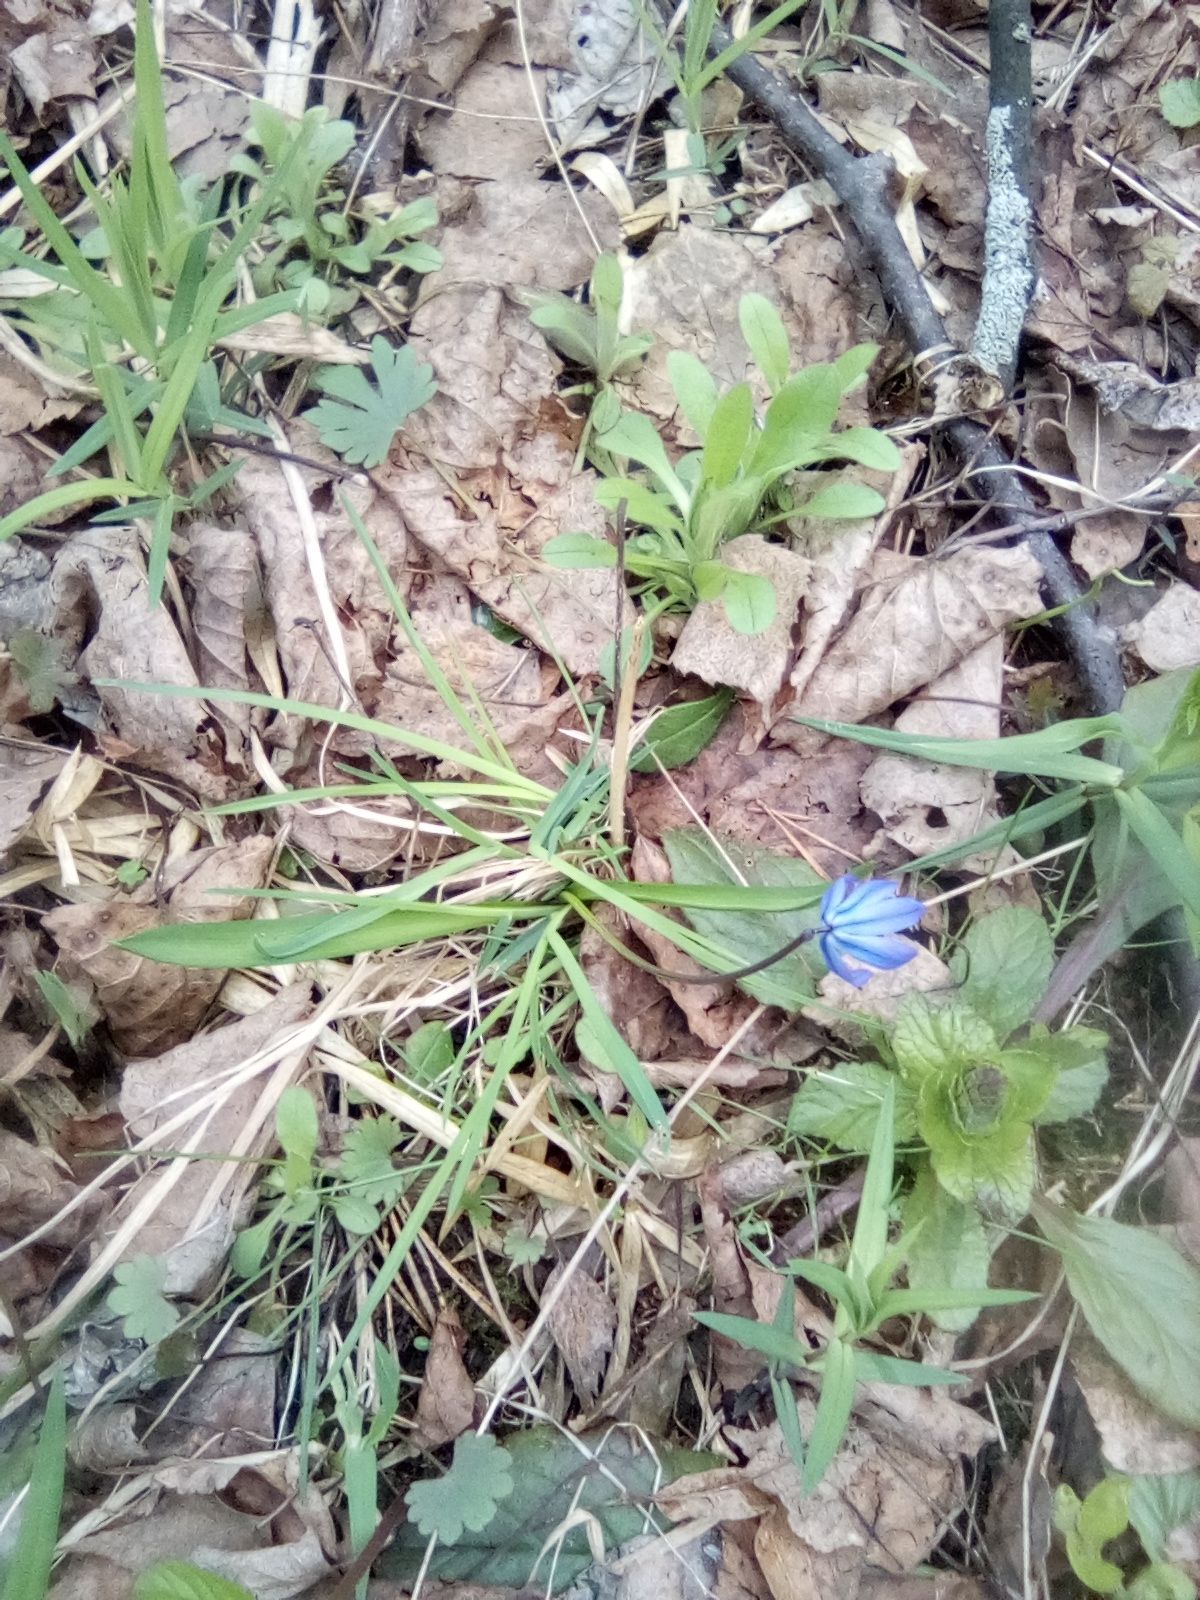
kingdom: Plantae
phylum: Tracheophyta
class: Liliopsida
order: Asparagales
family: Asparagaceae
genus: Scilla
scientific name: Scilla siberica
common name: Siberian squill
